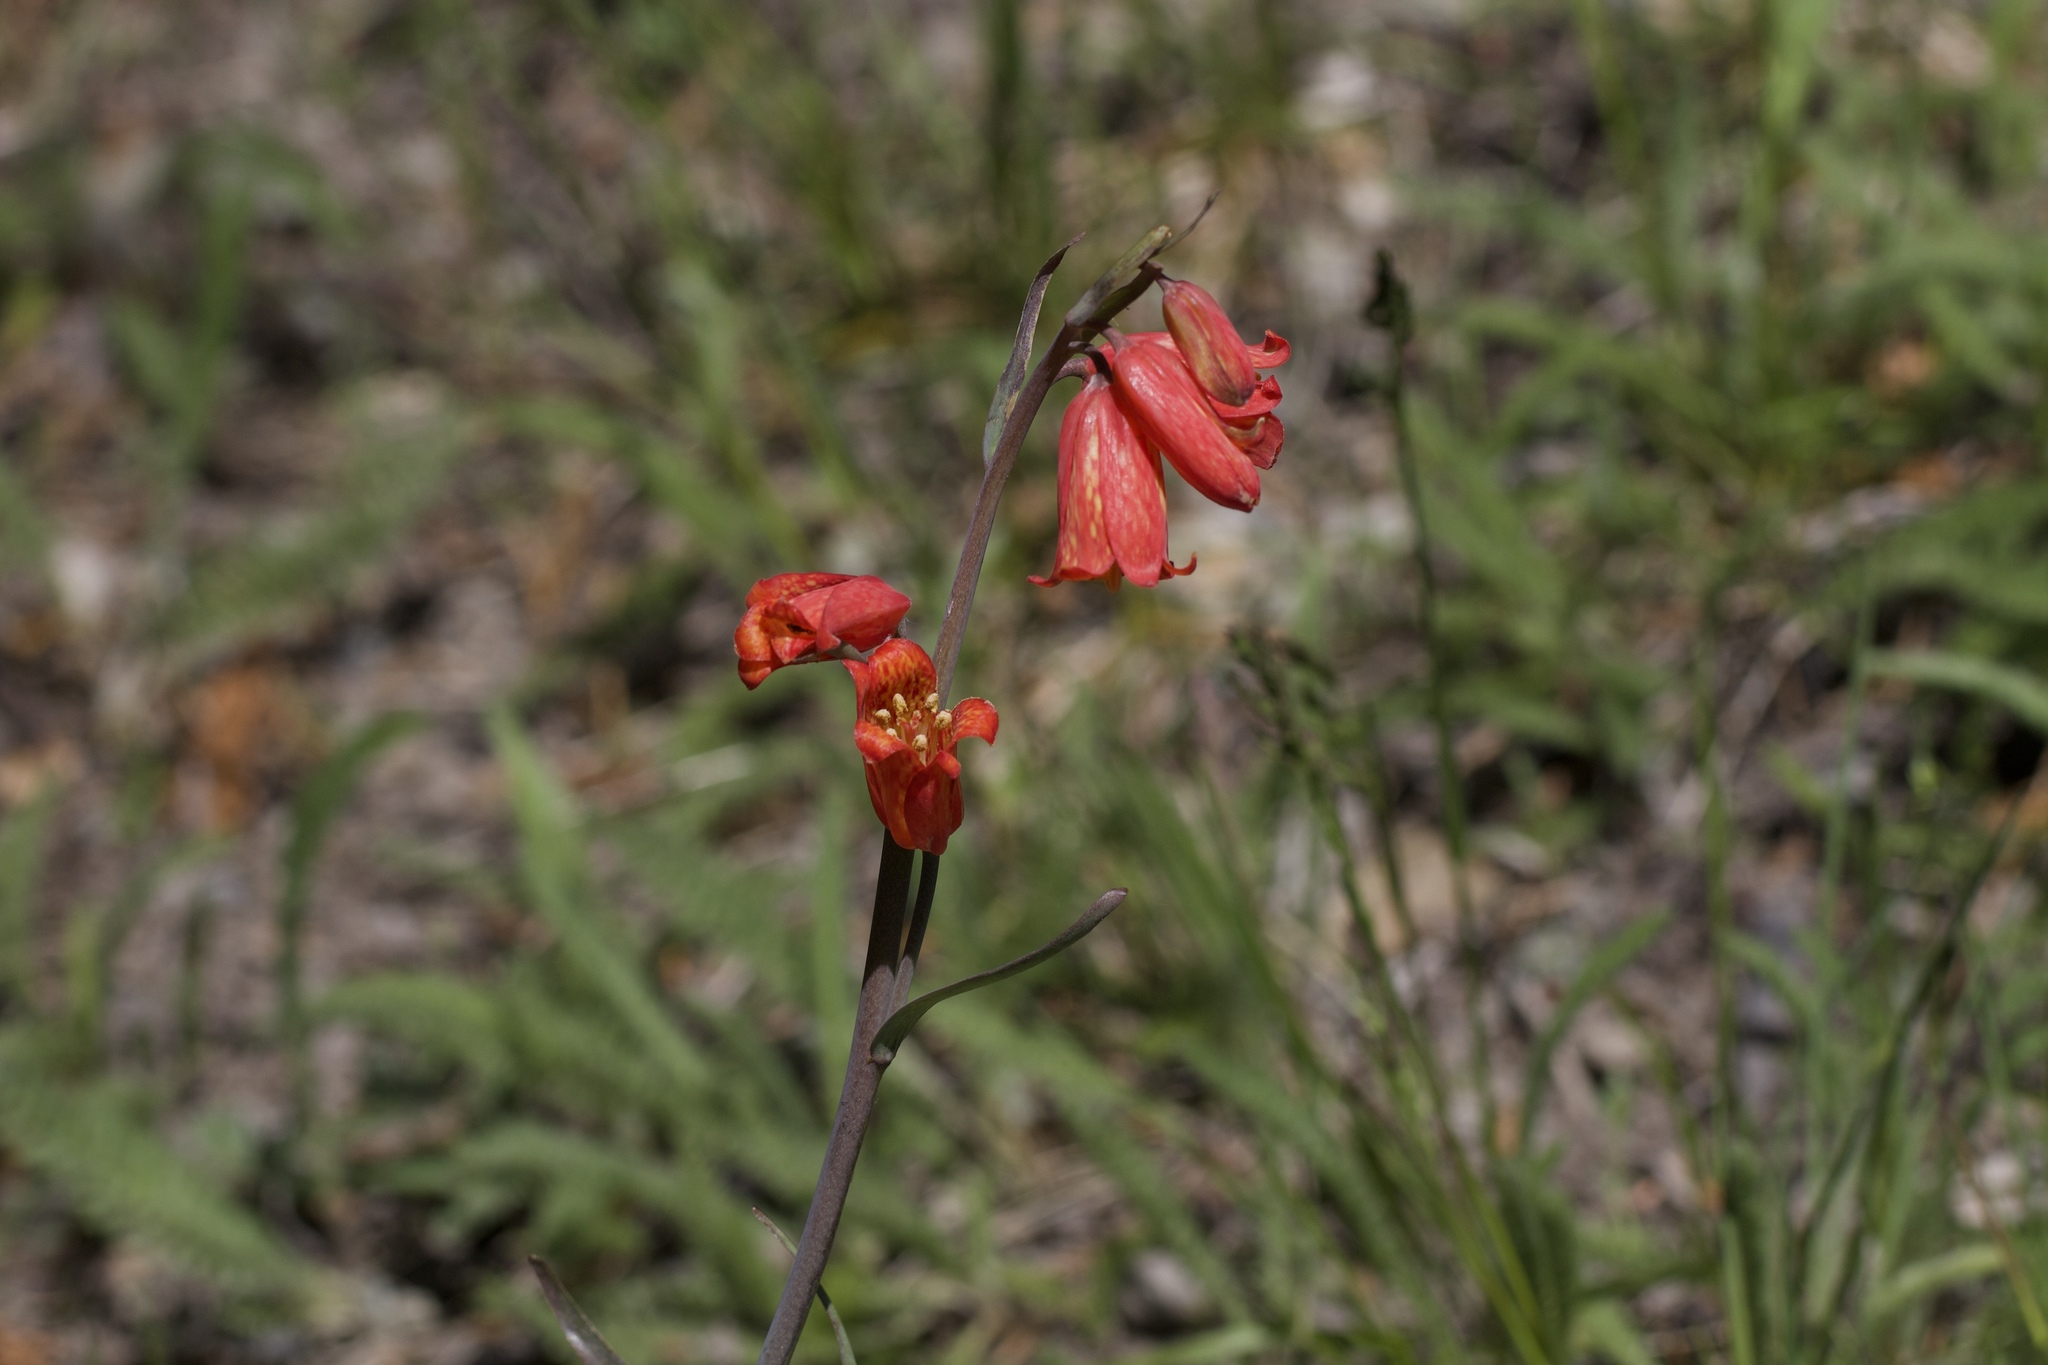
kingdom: Plantae
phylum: Tracheophyta
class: Liliopsida
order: Liliales
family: Liliaceae
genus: Fritillaria
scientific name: Fritillaria recurva
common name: Scarlet fritillary
